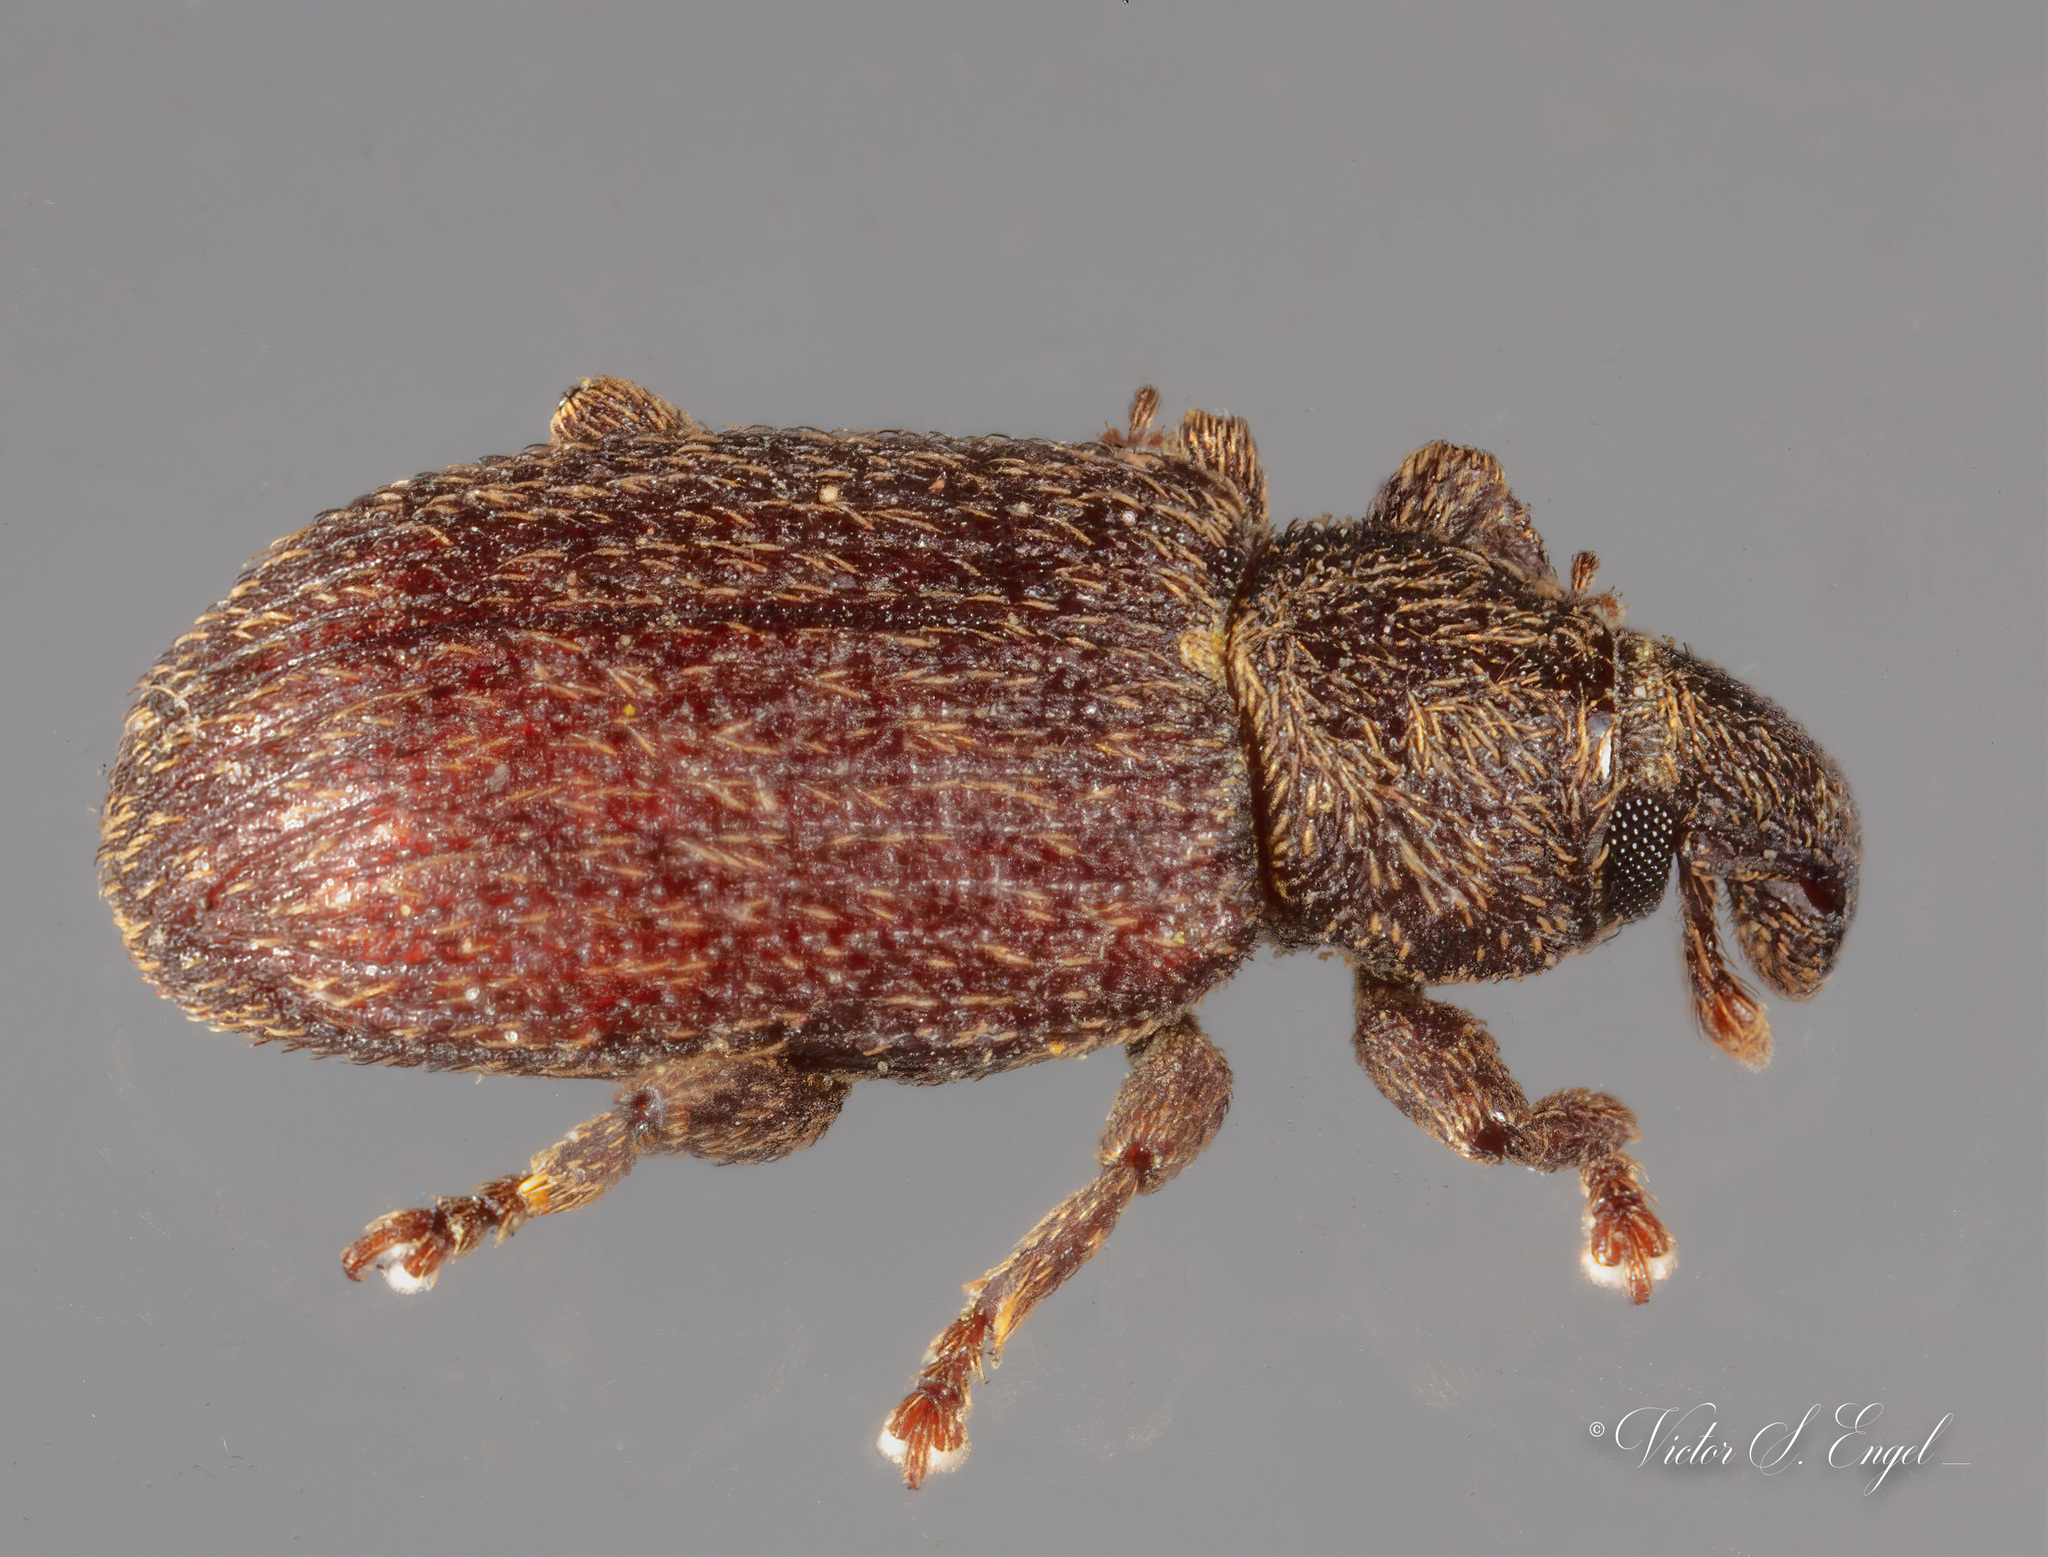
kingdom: Animalia
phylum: Arthropoda
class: Insecta
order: Coleoptera
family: Curculionidae
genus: Hormops
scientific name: Hormops abducens
